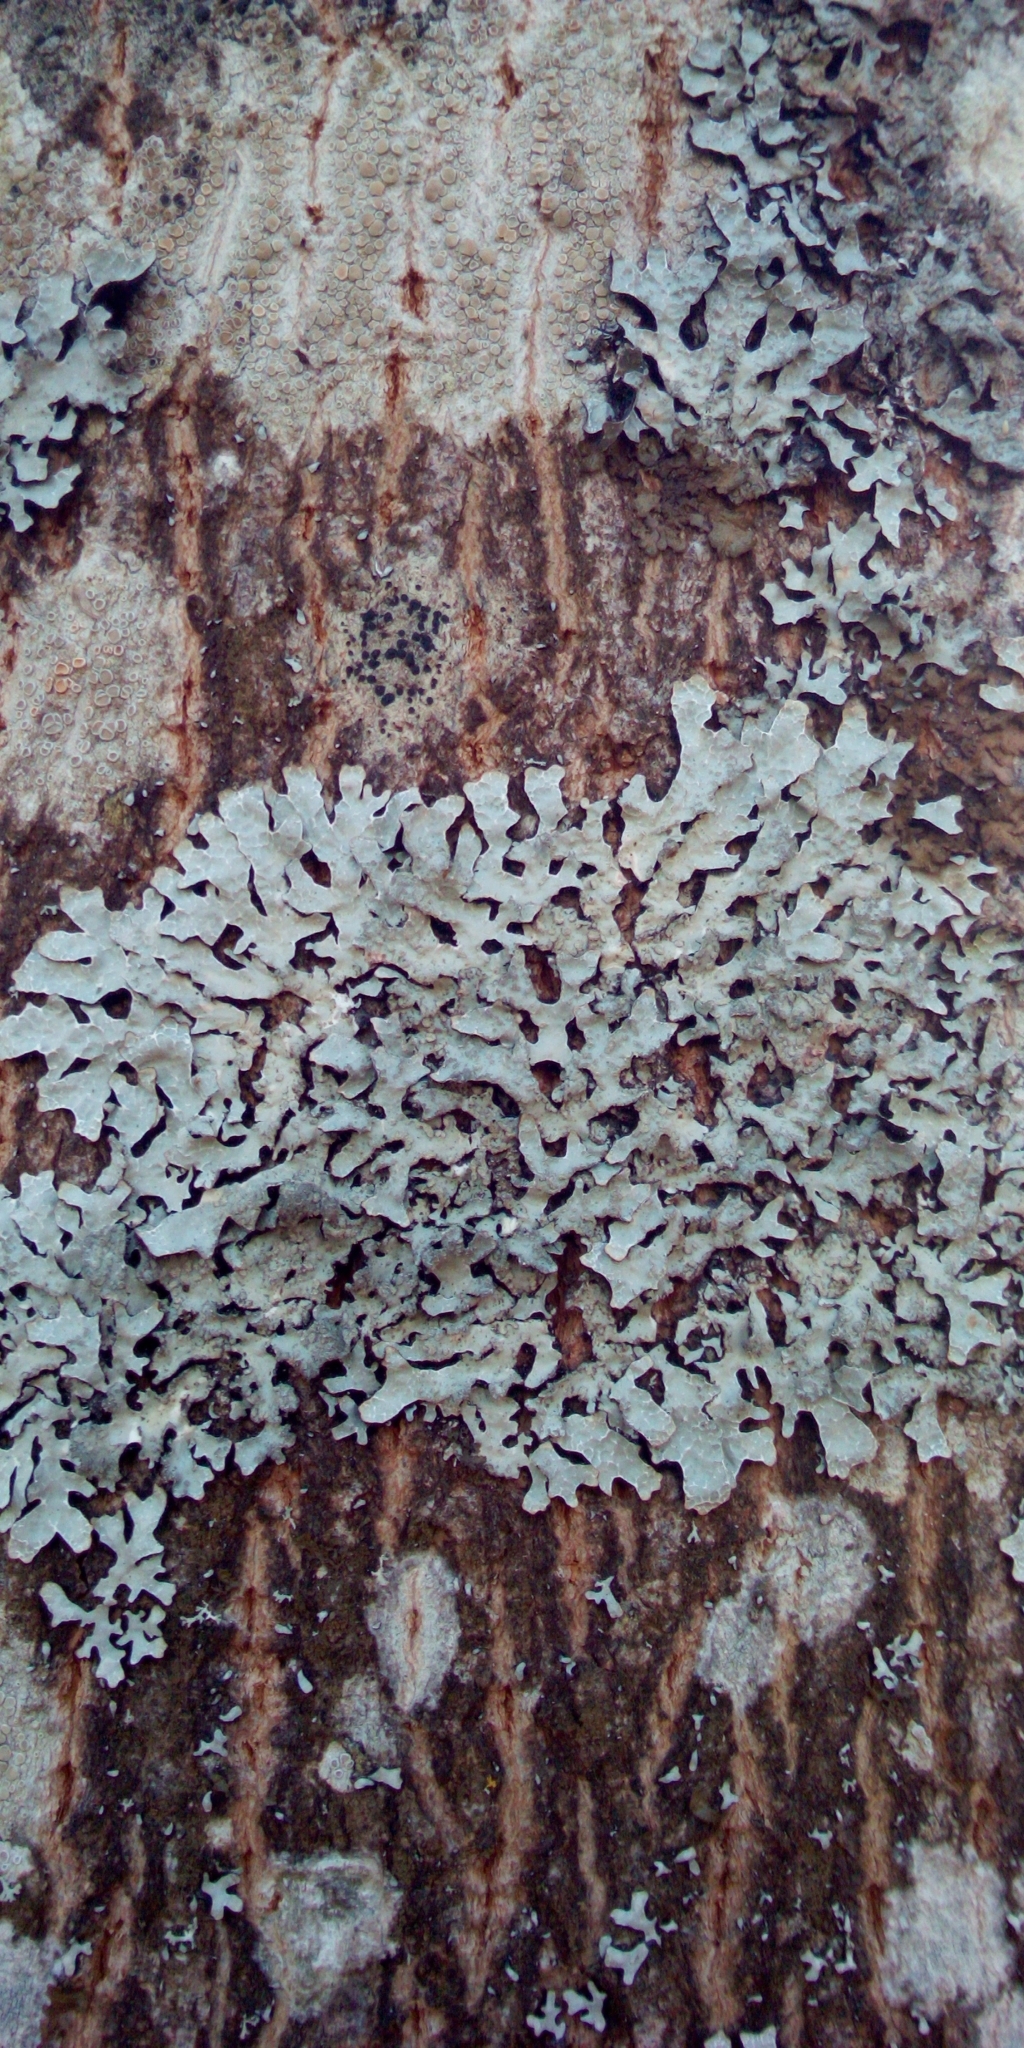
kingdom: Fungi
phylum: Ascomycota
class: Lecanoromycetes
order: Lecanorales
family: Parmeliaceae
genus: Parmelia
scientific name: Parmelia sulcata
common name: Netted shield lichen
